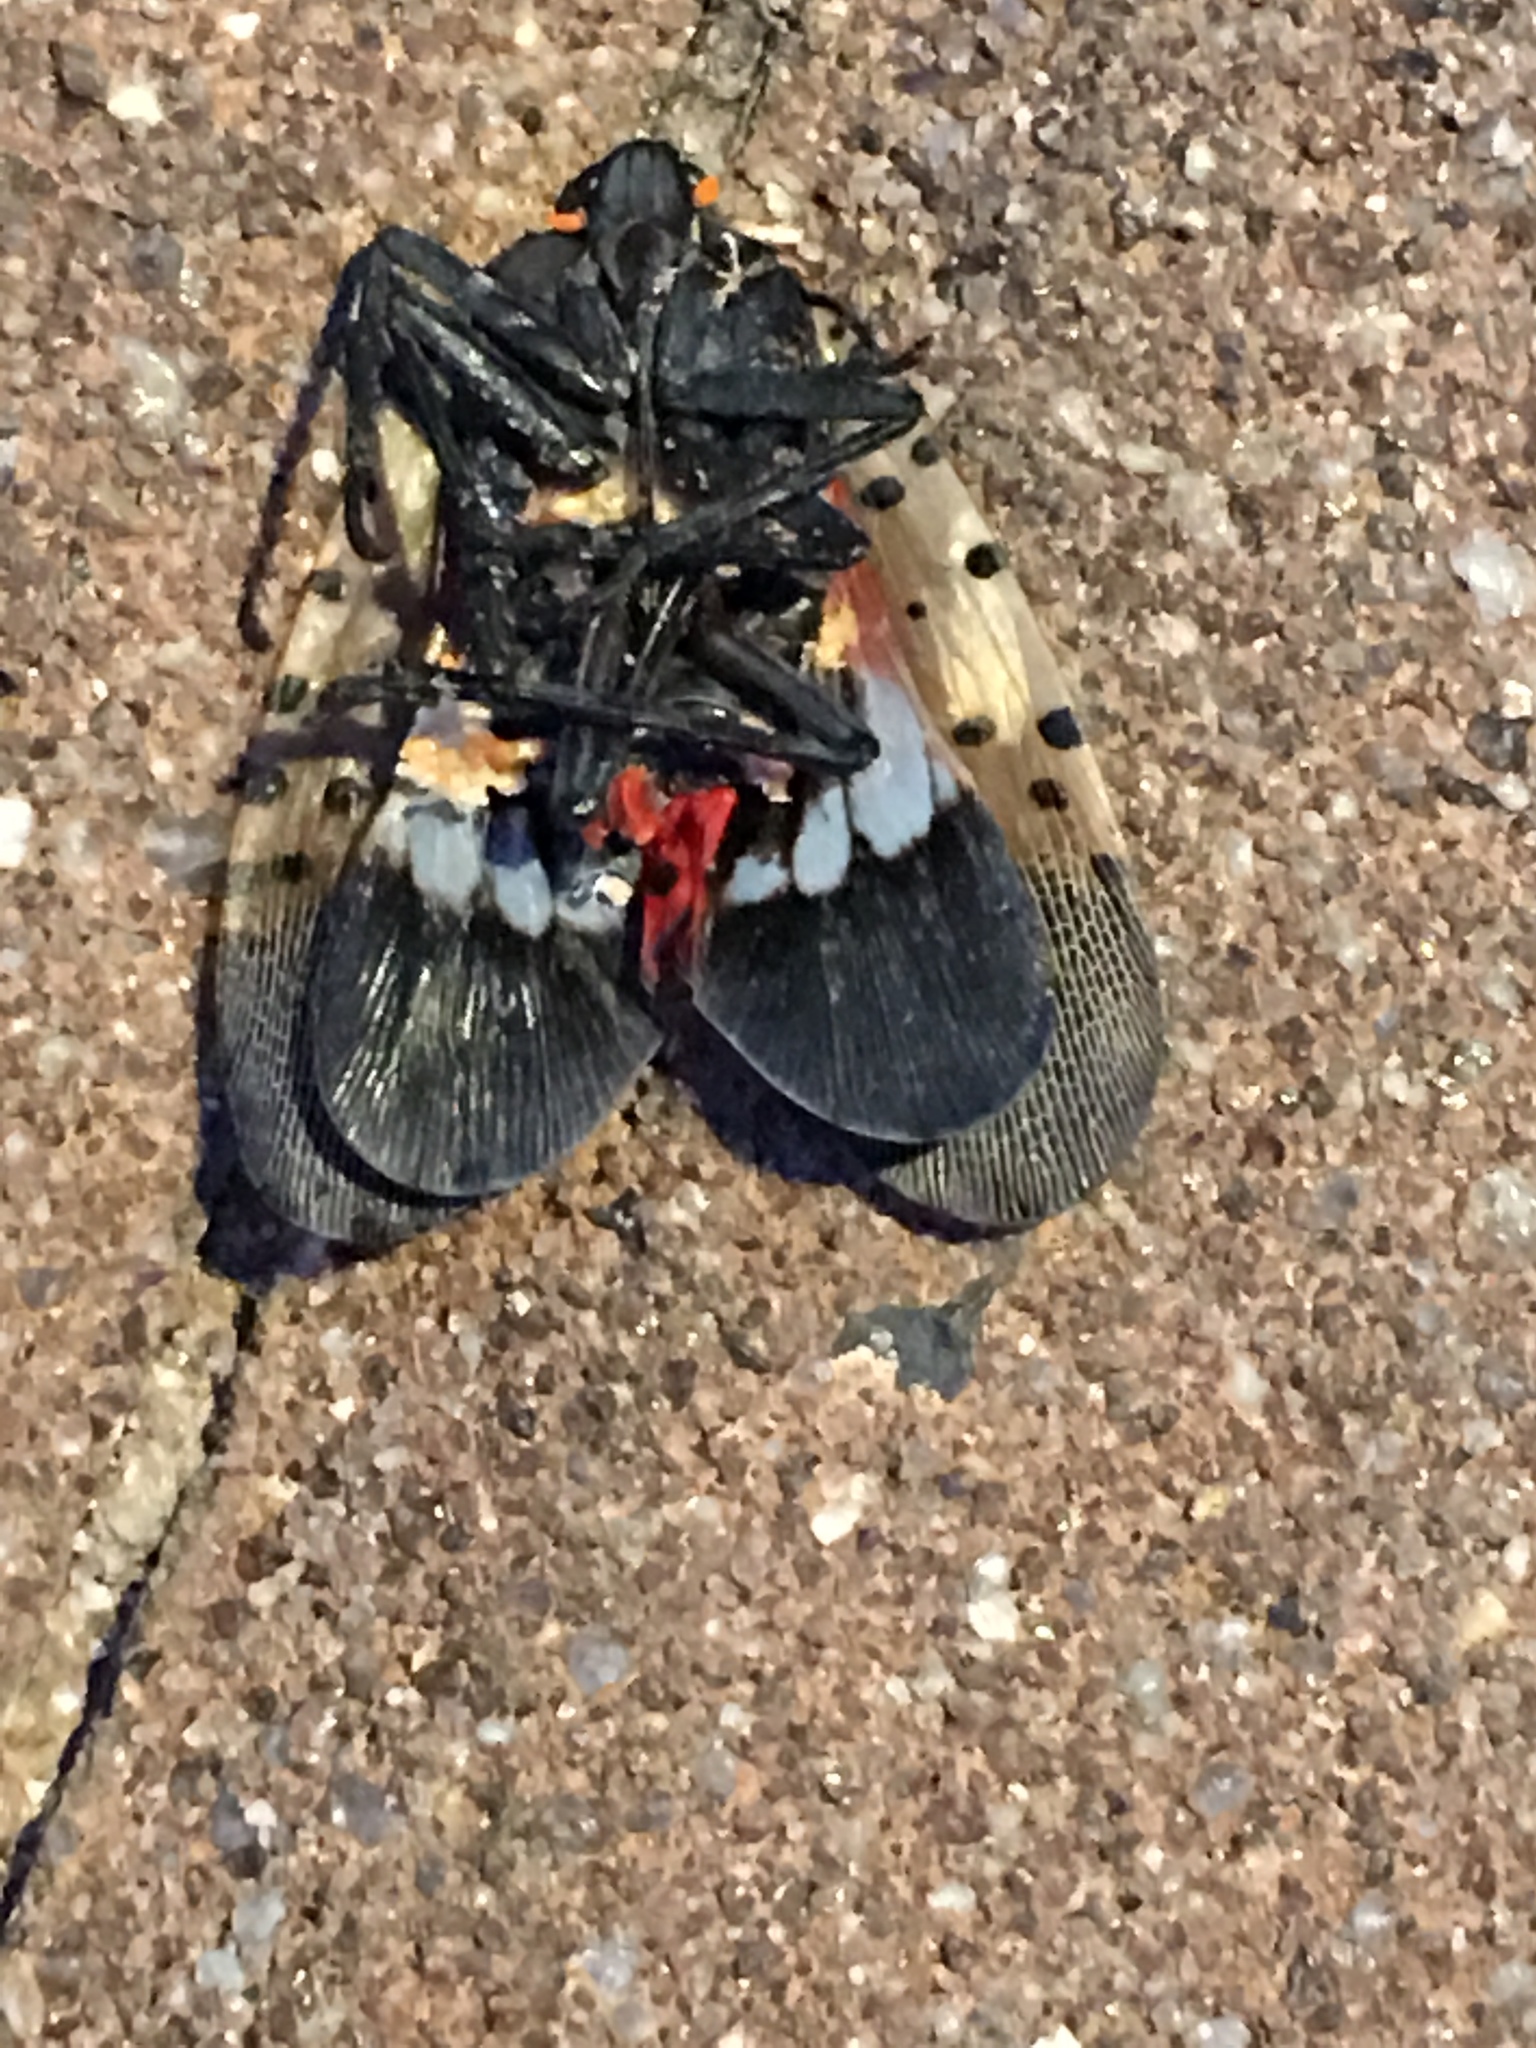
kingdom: Animalia
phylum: Arthropoda
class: Insecta
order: Hemiptera
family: Fulgoridae
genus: Lycorma
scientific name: Lycorma delicatula
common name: Spotted lanternfly
